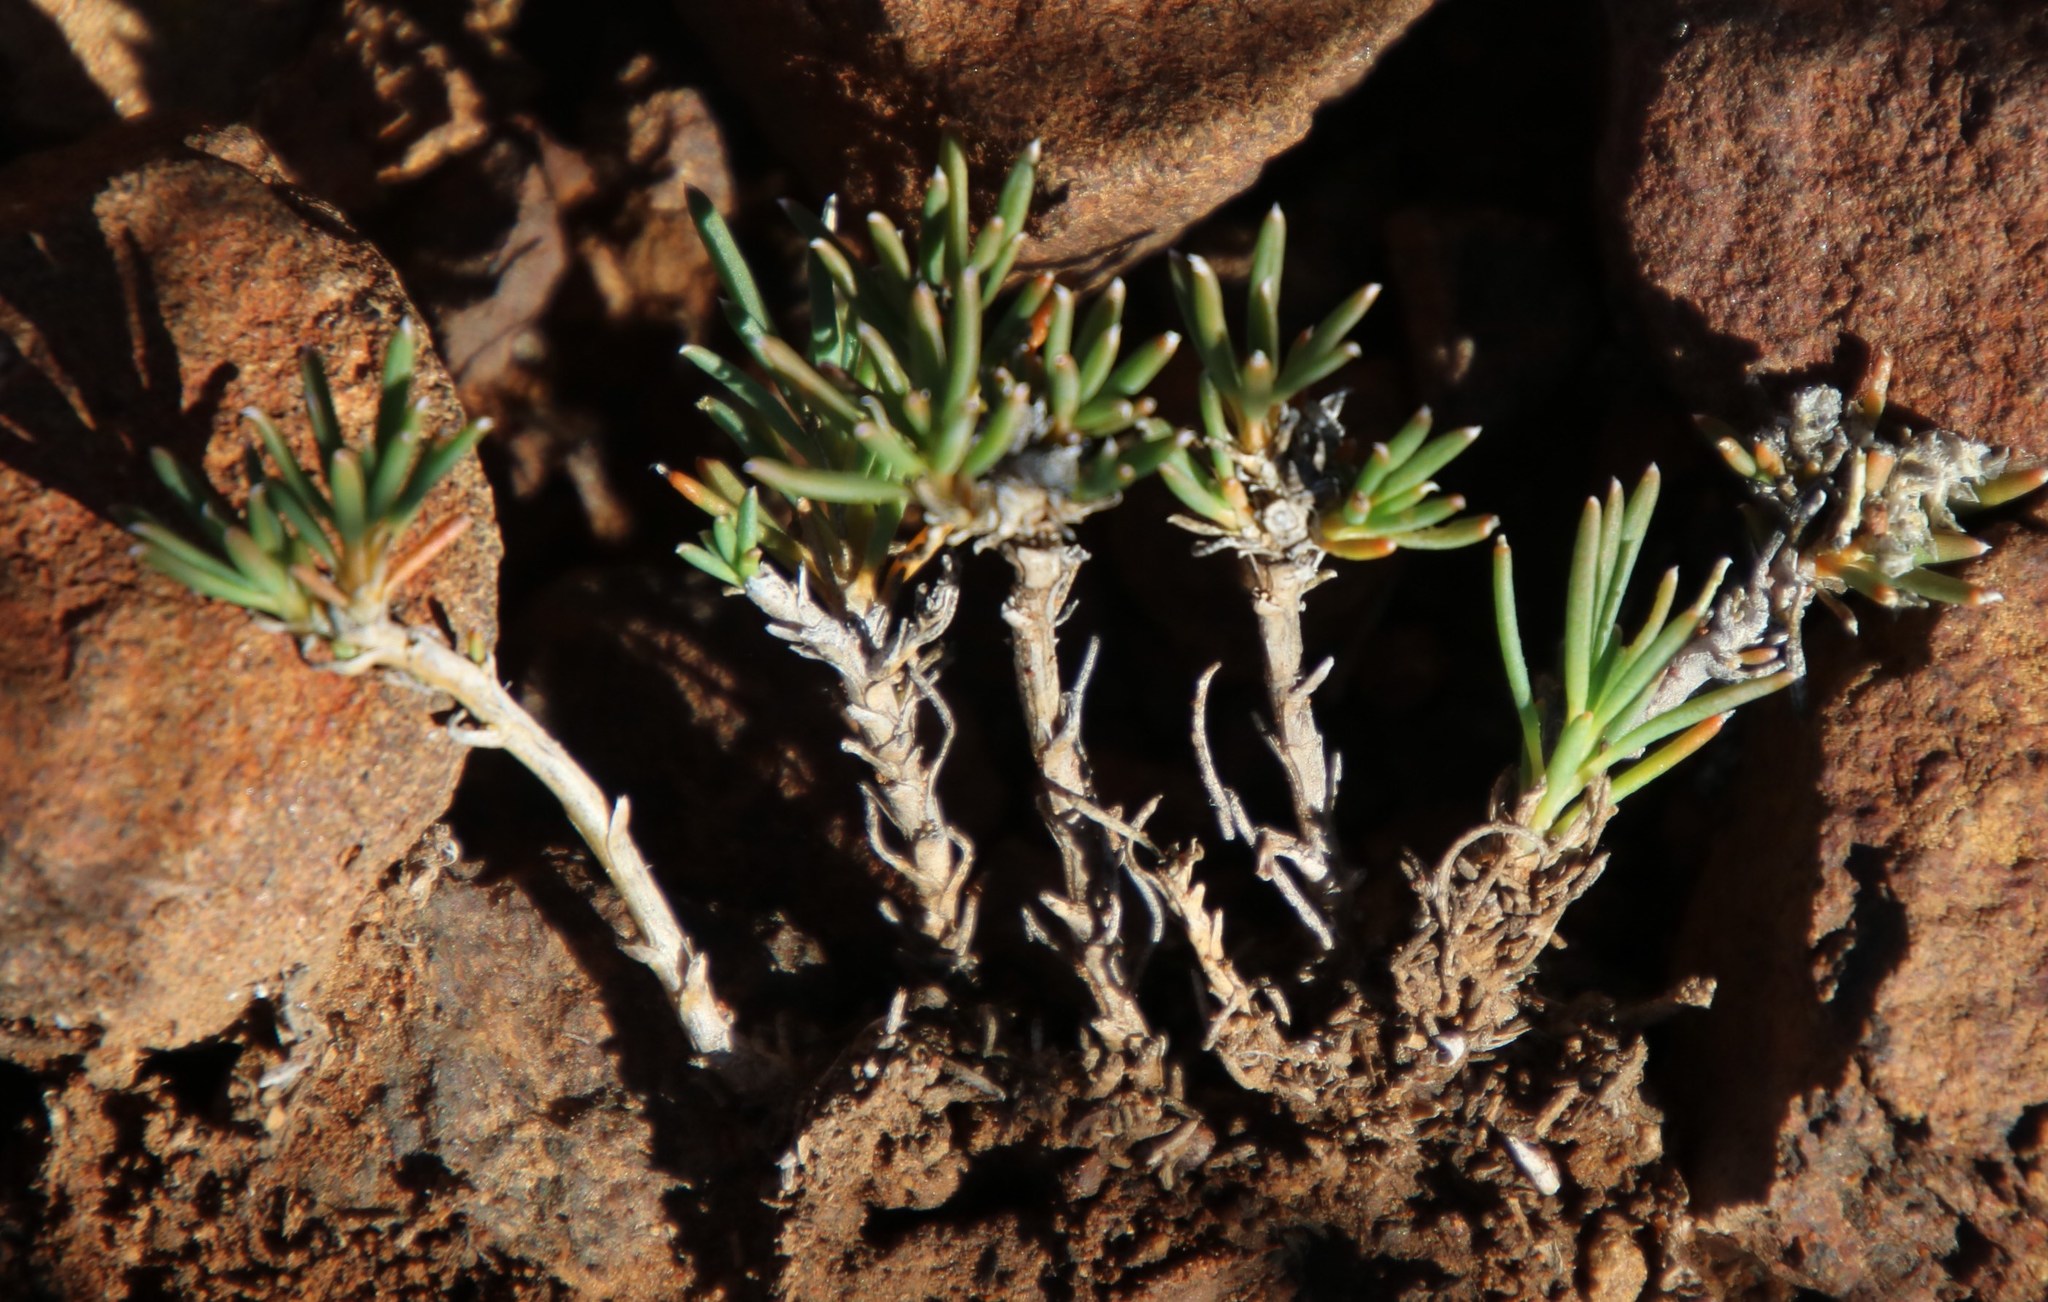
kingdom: Plantae
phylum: Tracheophyta
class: Magnoliopsida
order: Caryophyllales
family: Limeaceae
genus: Limeum
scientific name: Limeum aethiopicum
